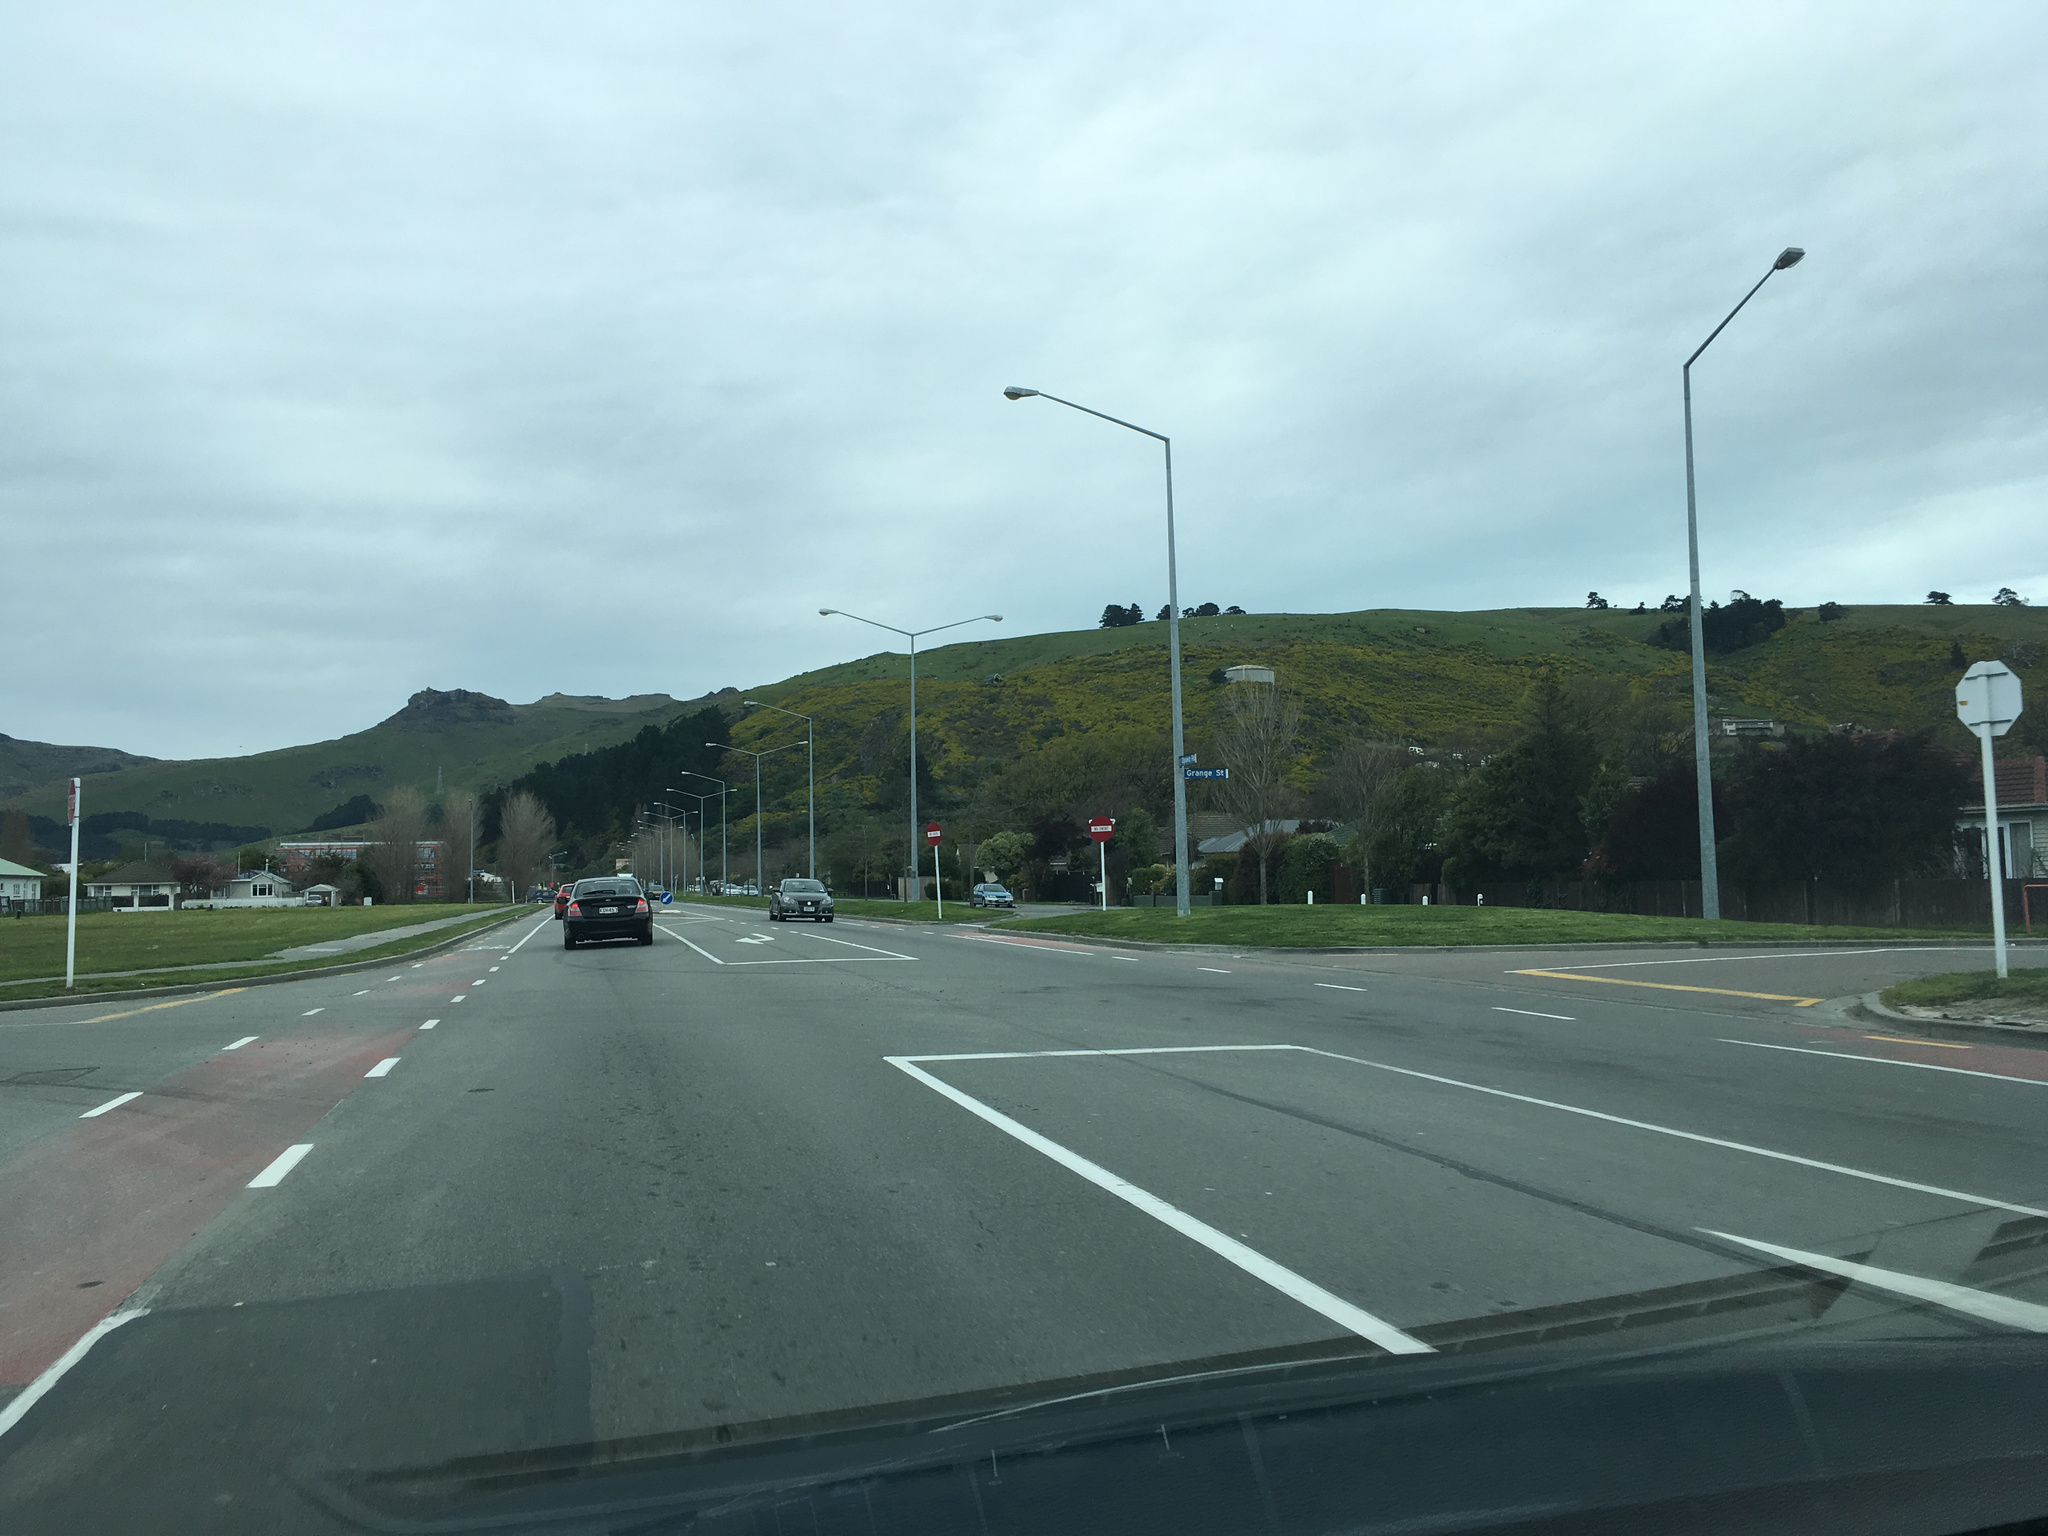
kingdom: Plantae
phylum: Tracheophyta
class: Magnoliopsida
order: Asterales
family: Asteraceae
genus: Osteospermum
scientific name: Osteospermum moniliferum
